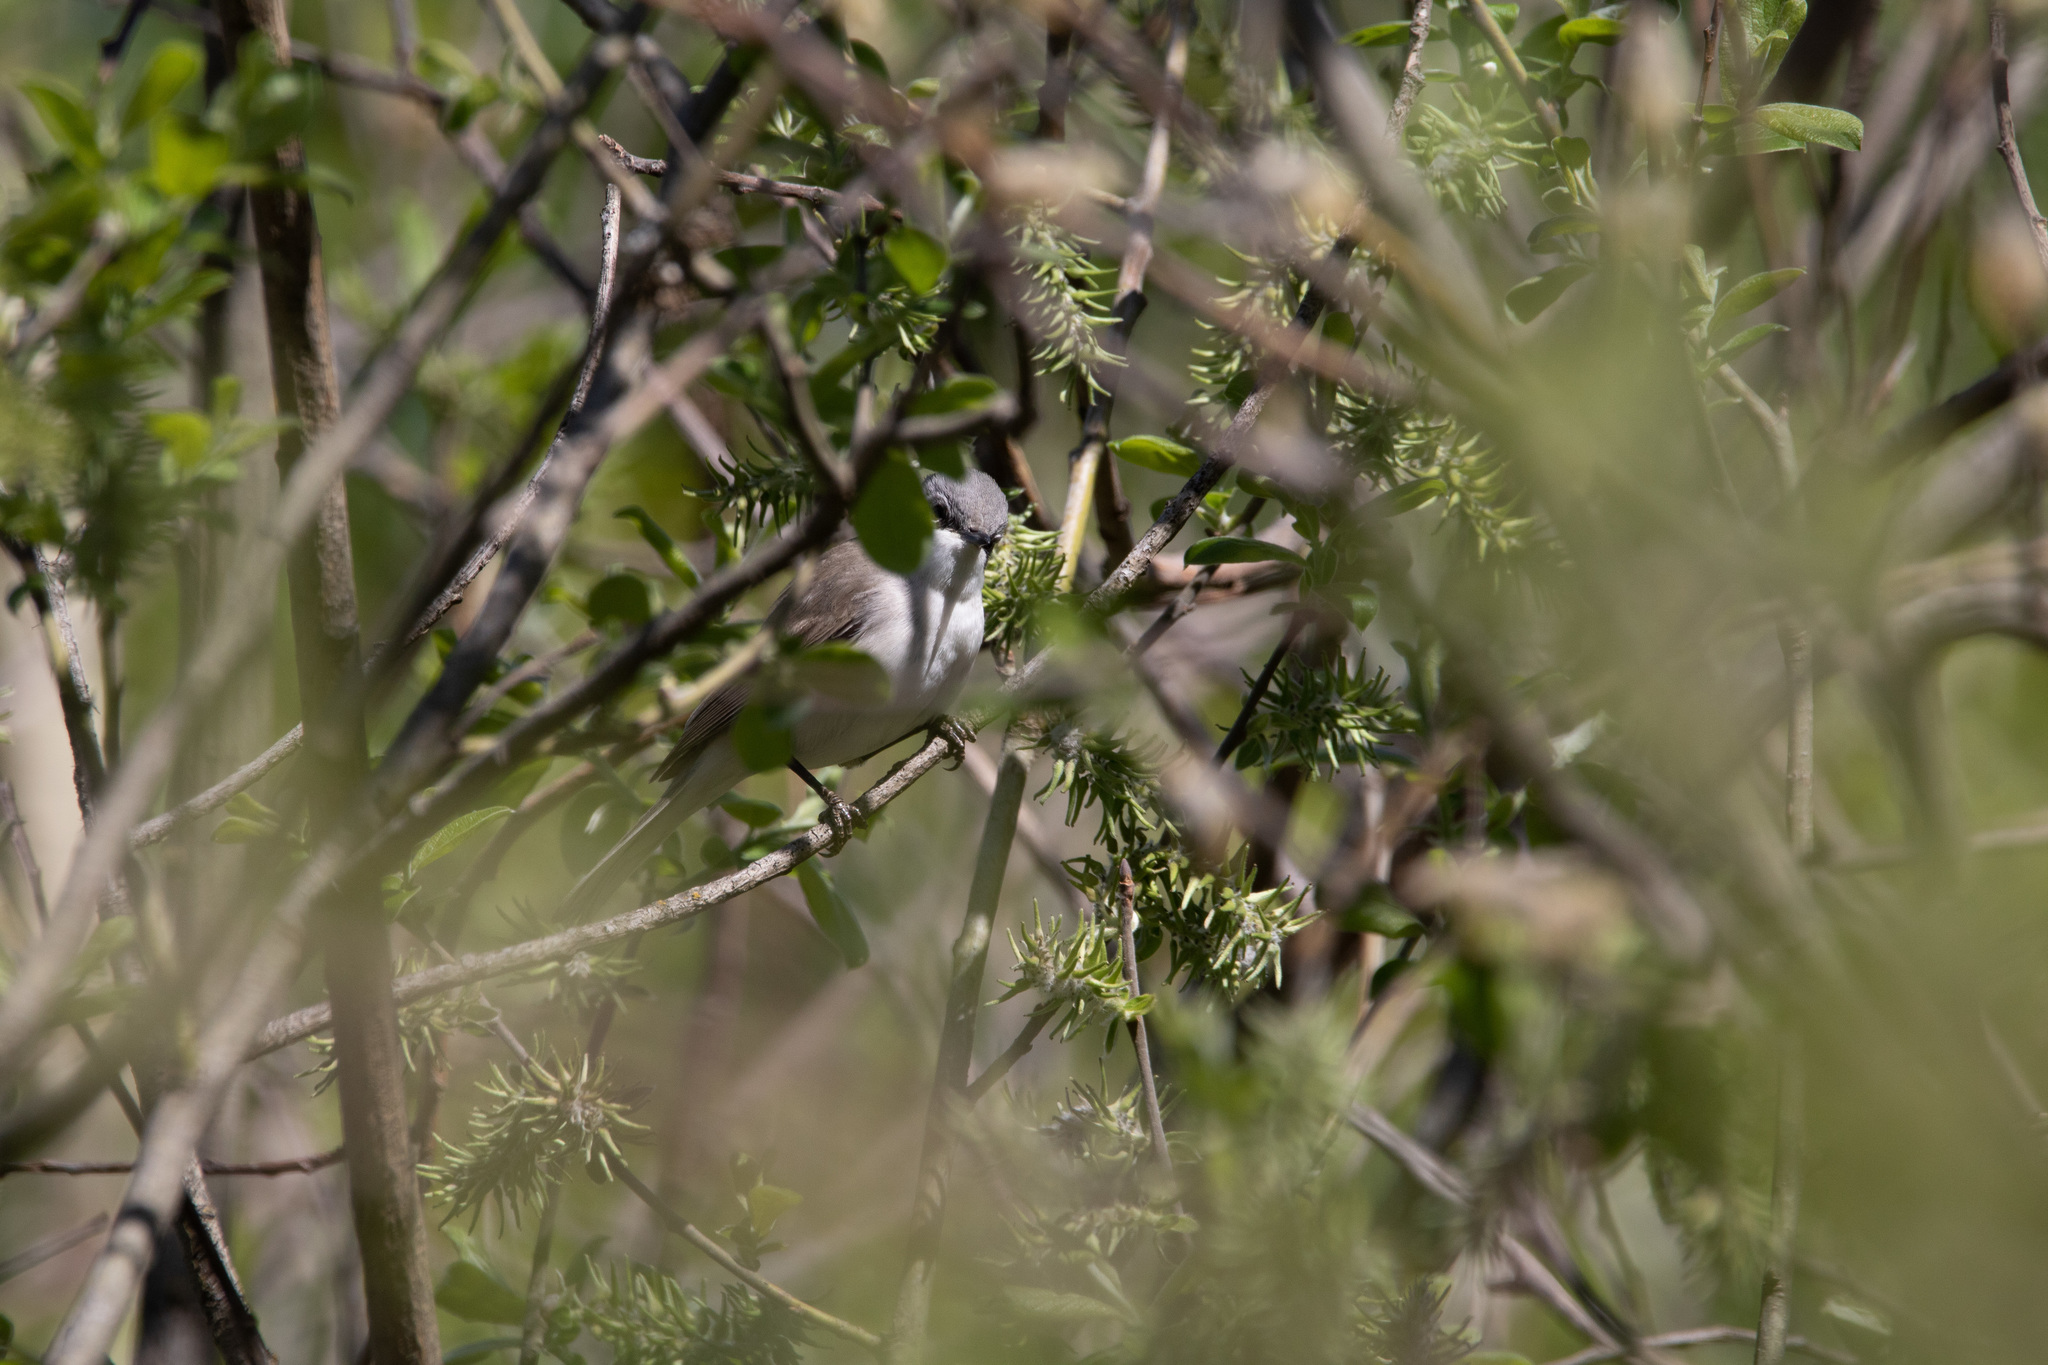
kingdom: Animalia
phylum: Chordata
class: Aves
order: Passeriformes
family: Sylviidae
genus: Sylvia
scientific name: Sylvia curruca
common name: Lesser whitethroat
